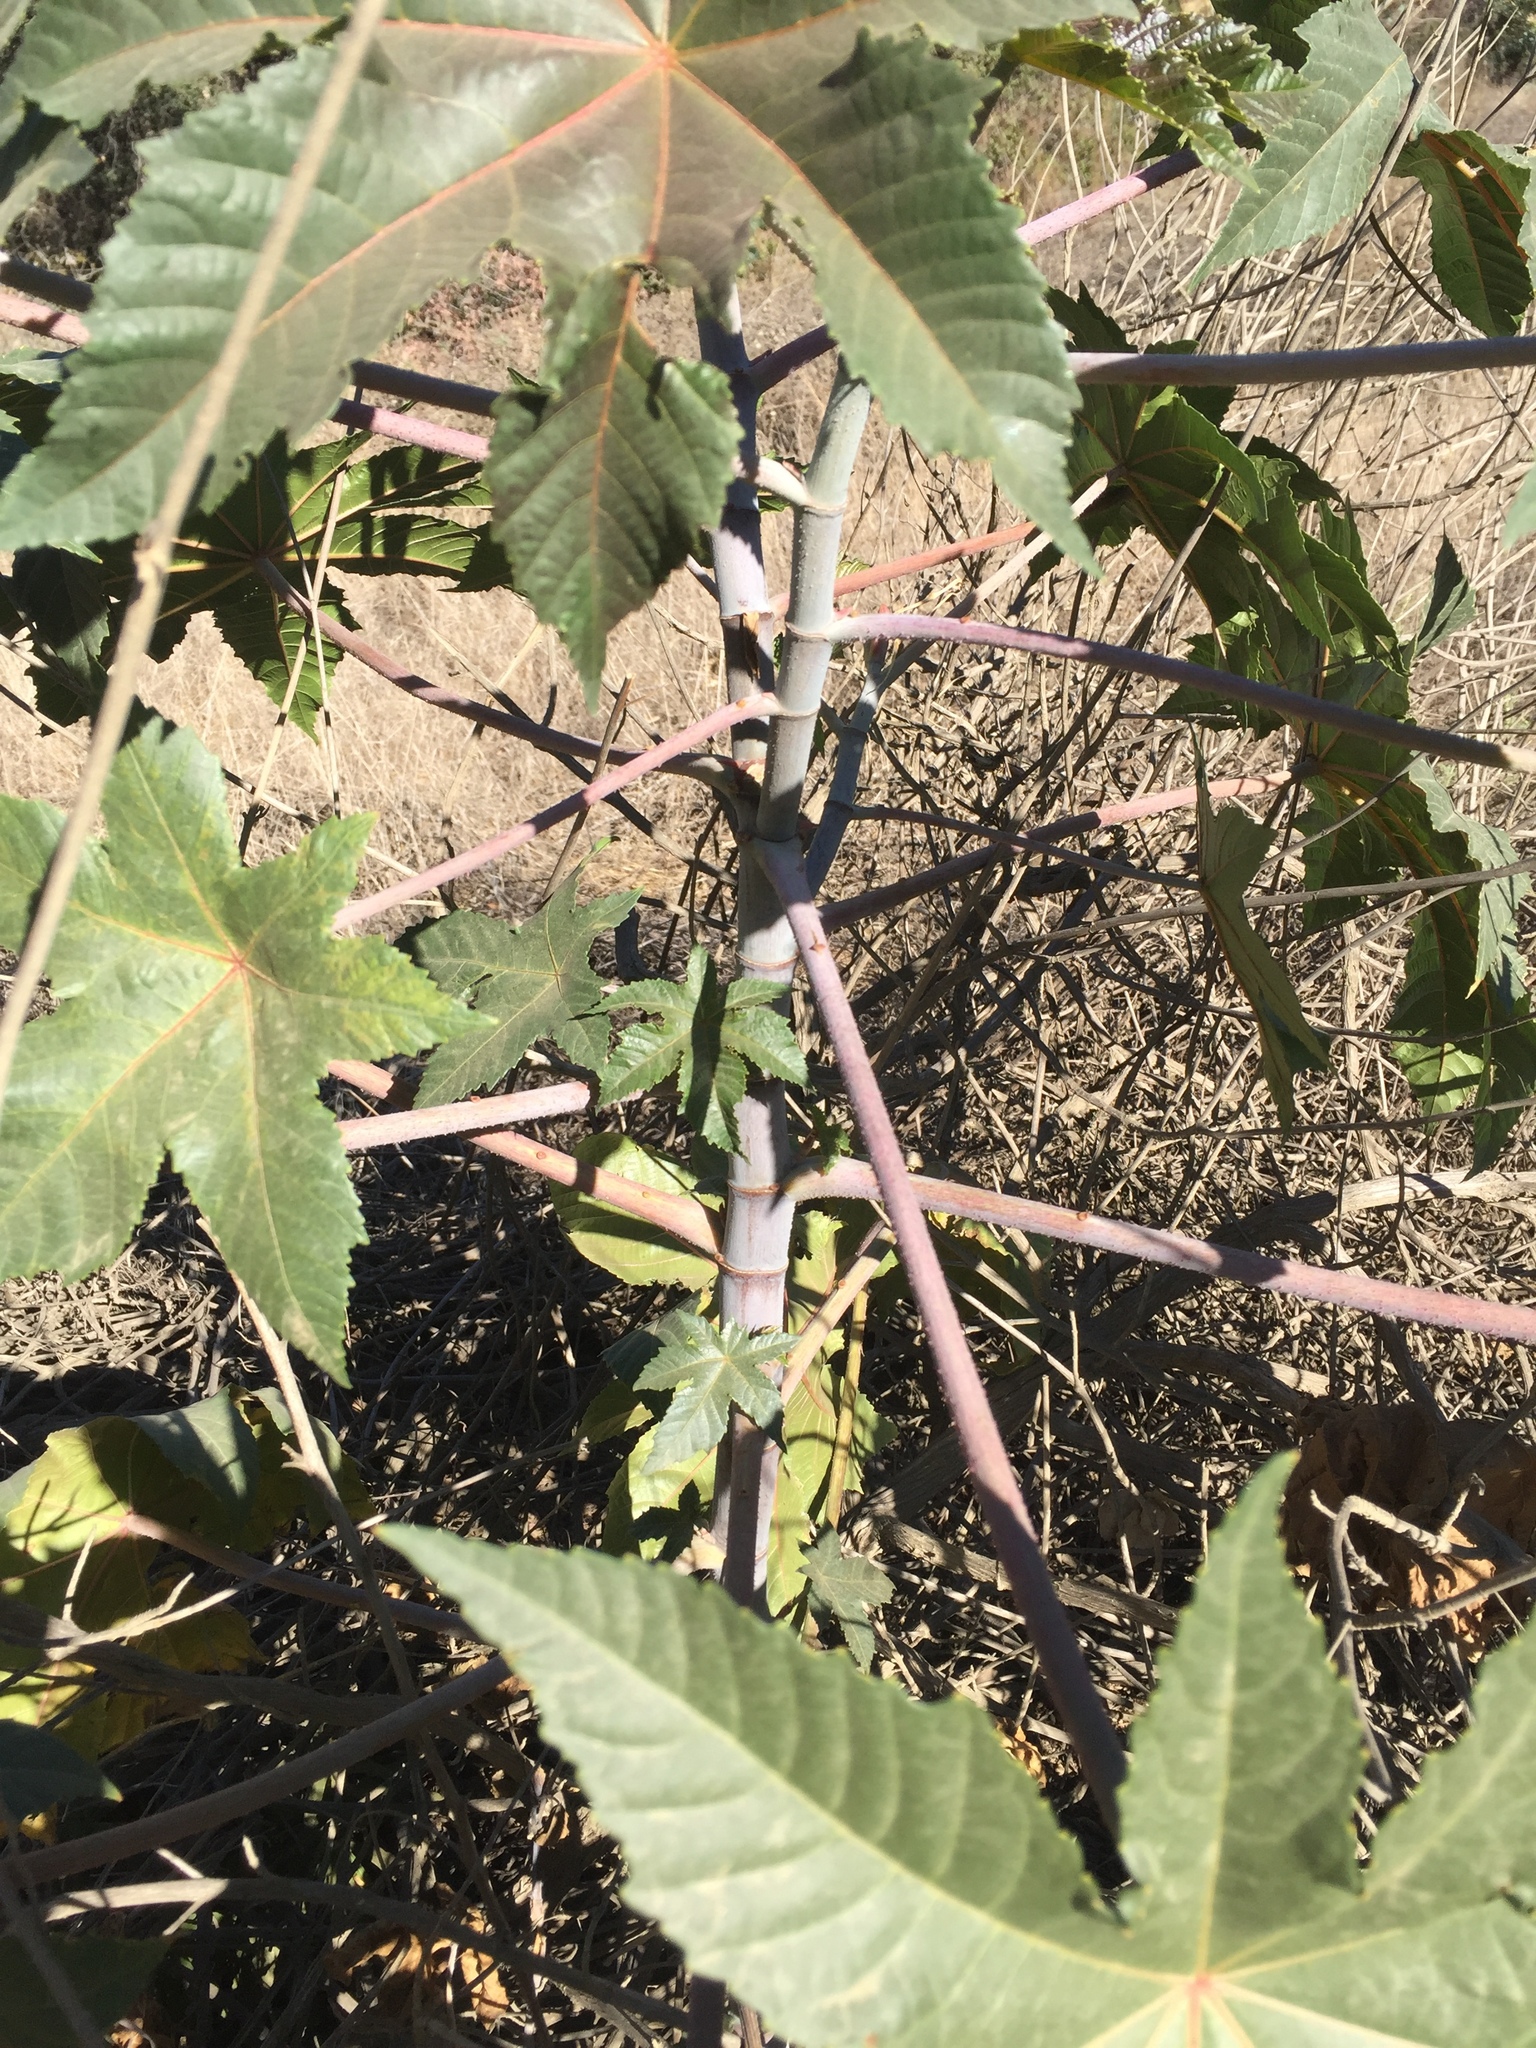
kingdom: Plantae
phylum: Tracheophyta
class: Magnoliopsida
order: Malpighiales
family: Euphorbiaceae
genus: Ricinus
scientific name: Ricinus communis
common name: Castor-oil-plant
